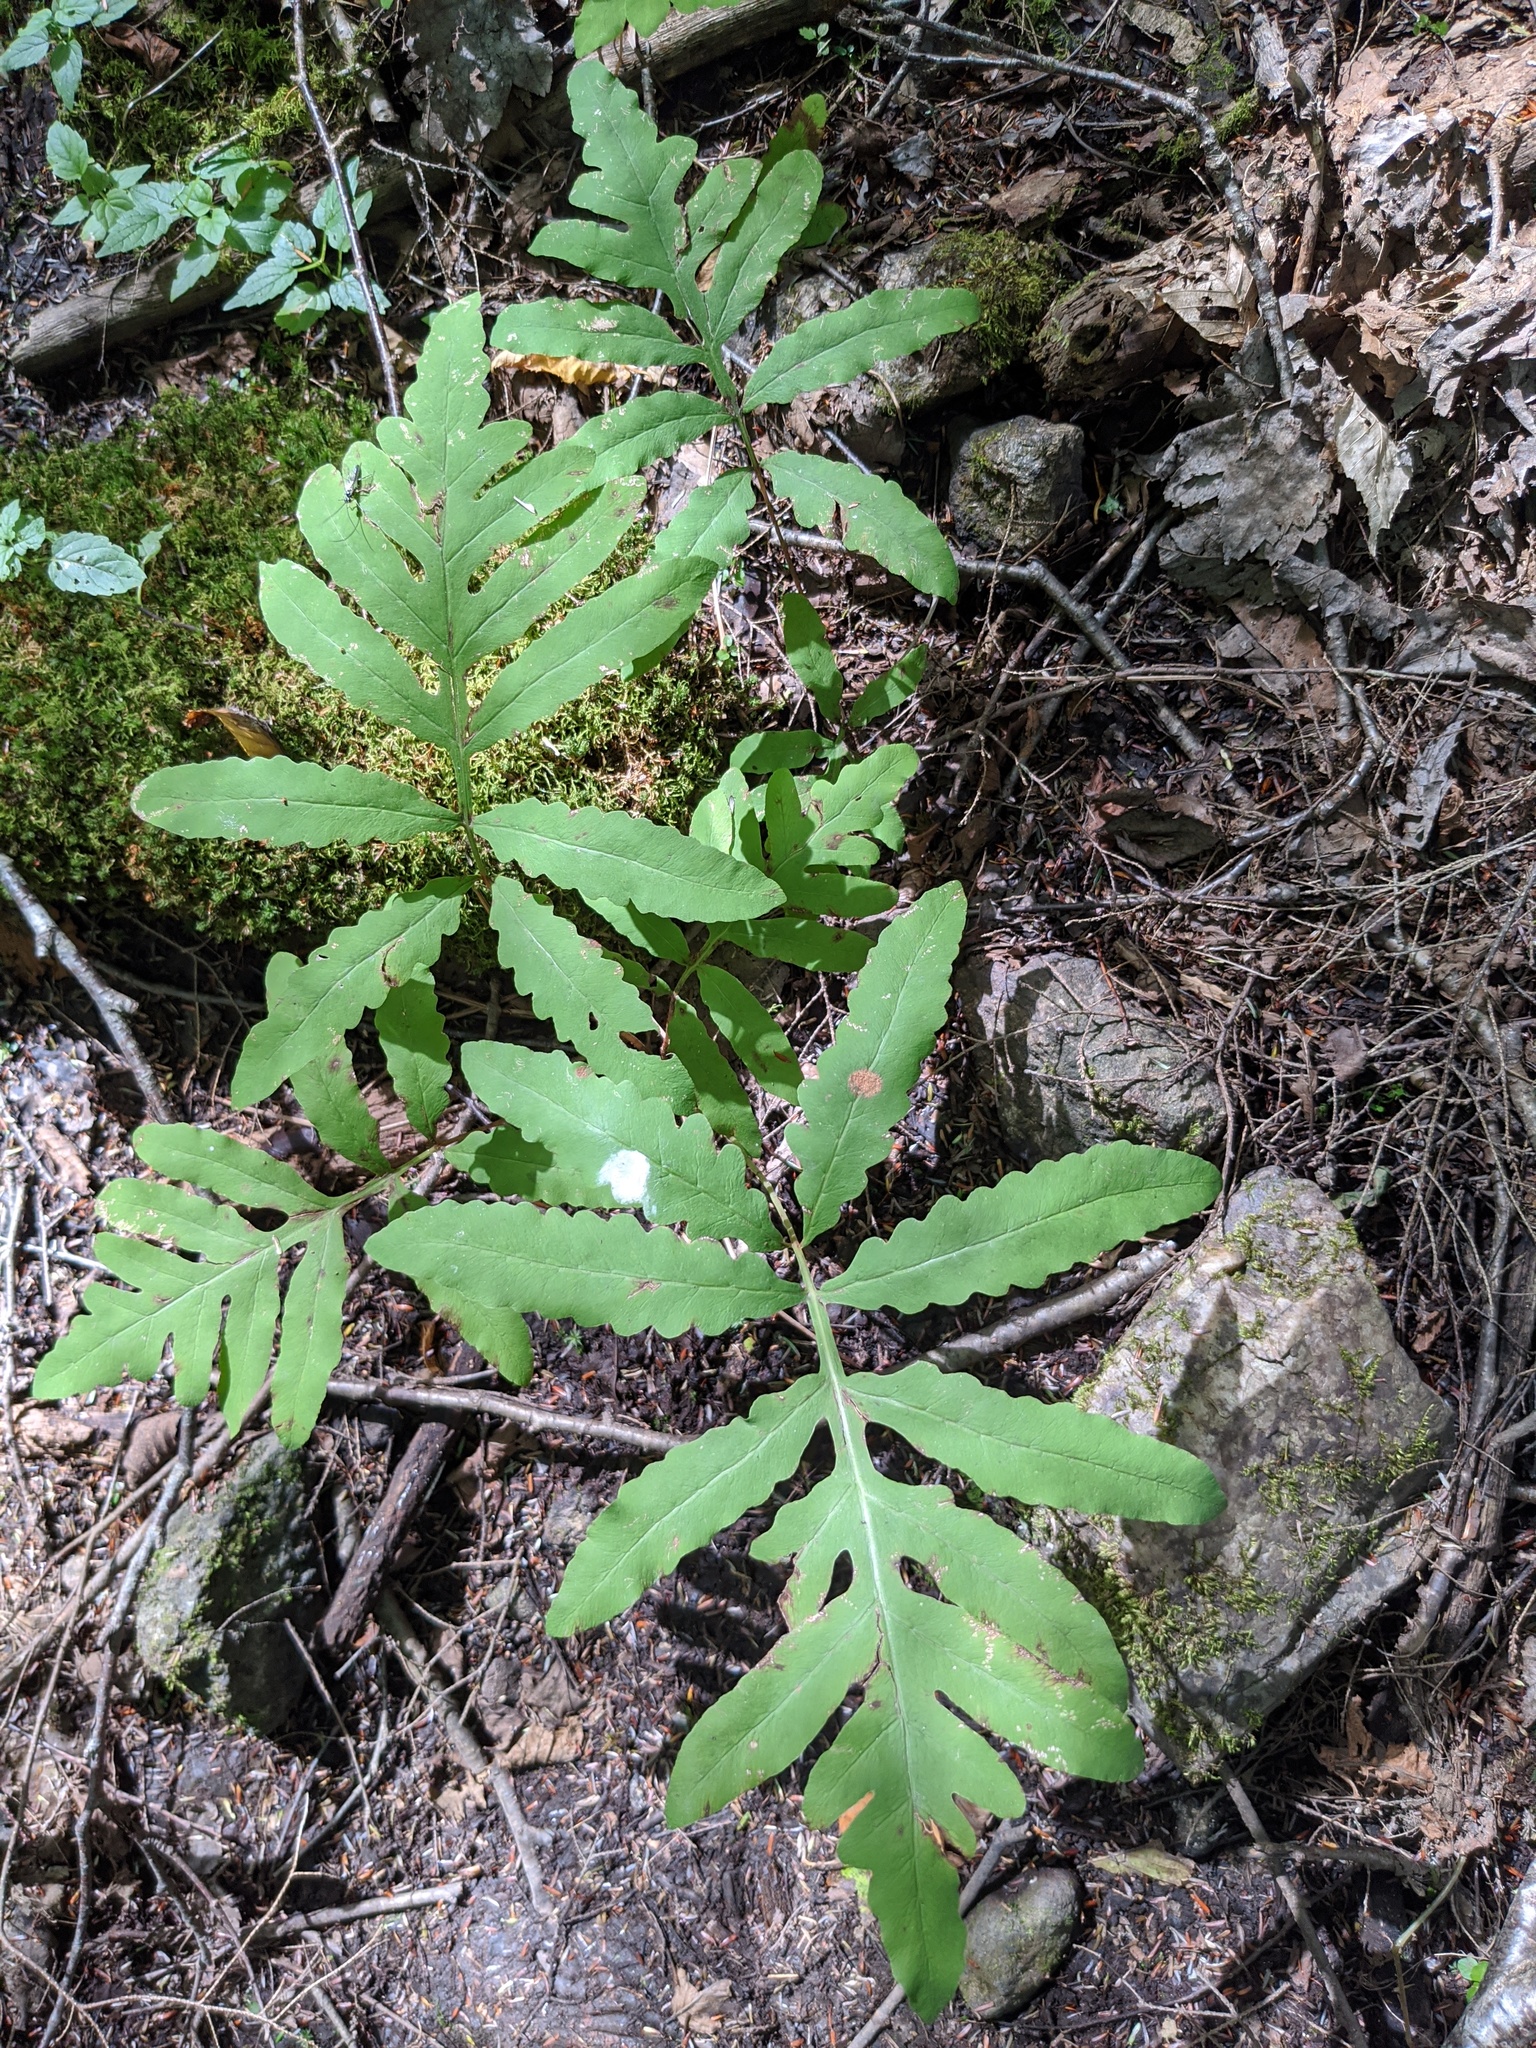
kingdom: Plantae
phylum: Tracheophyta
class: Polypodiopsida
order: Polypodiales
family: Onocleaceae
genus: Onoclea
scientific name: Onoclea sensibilis
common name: Sensitive fern
